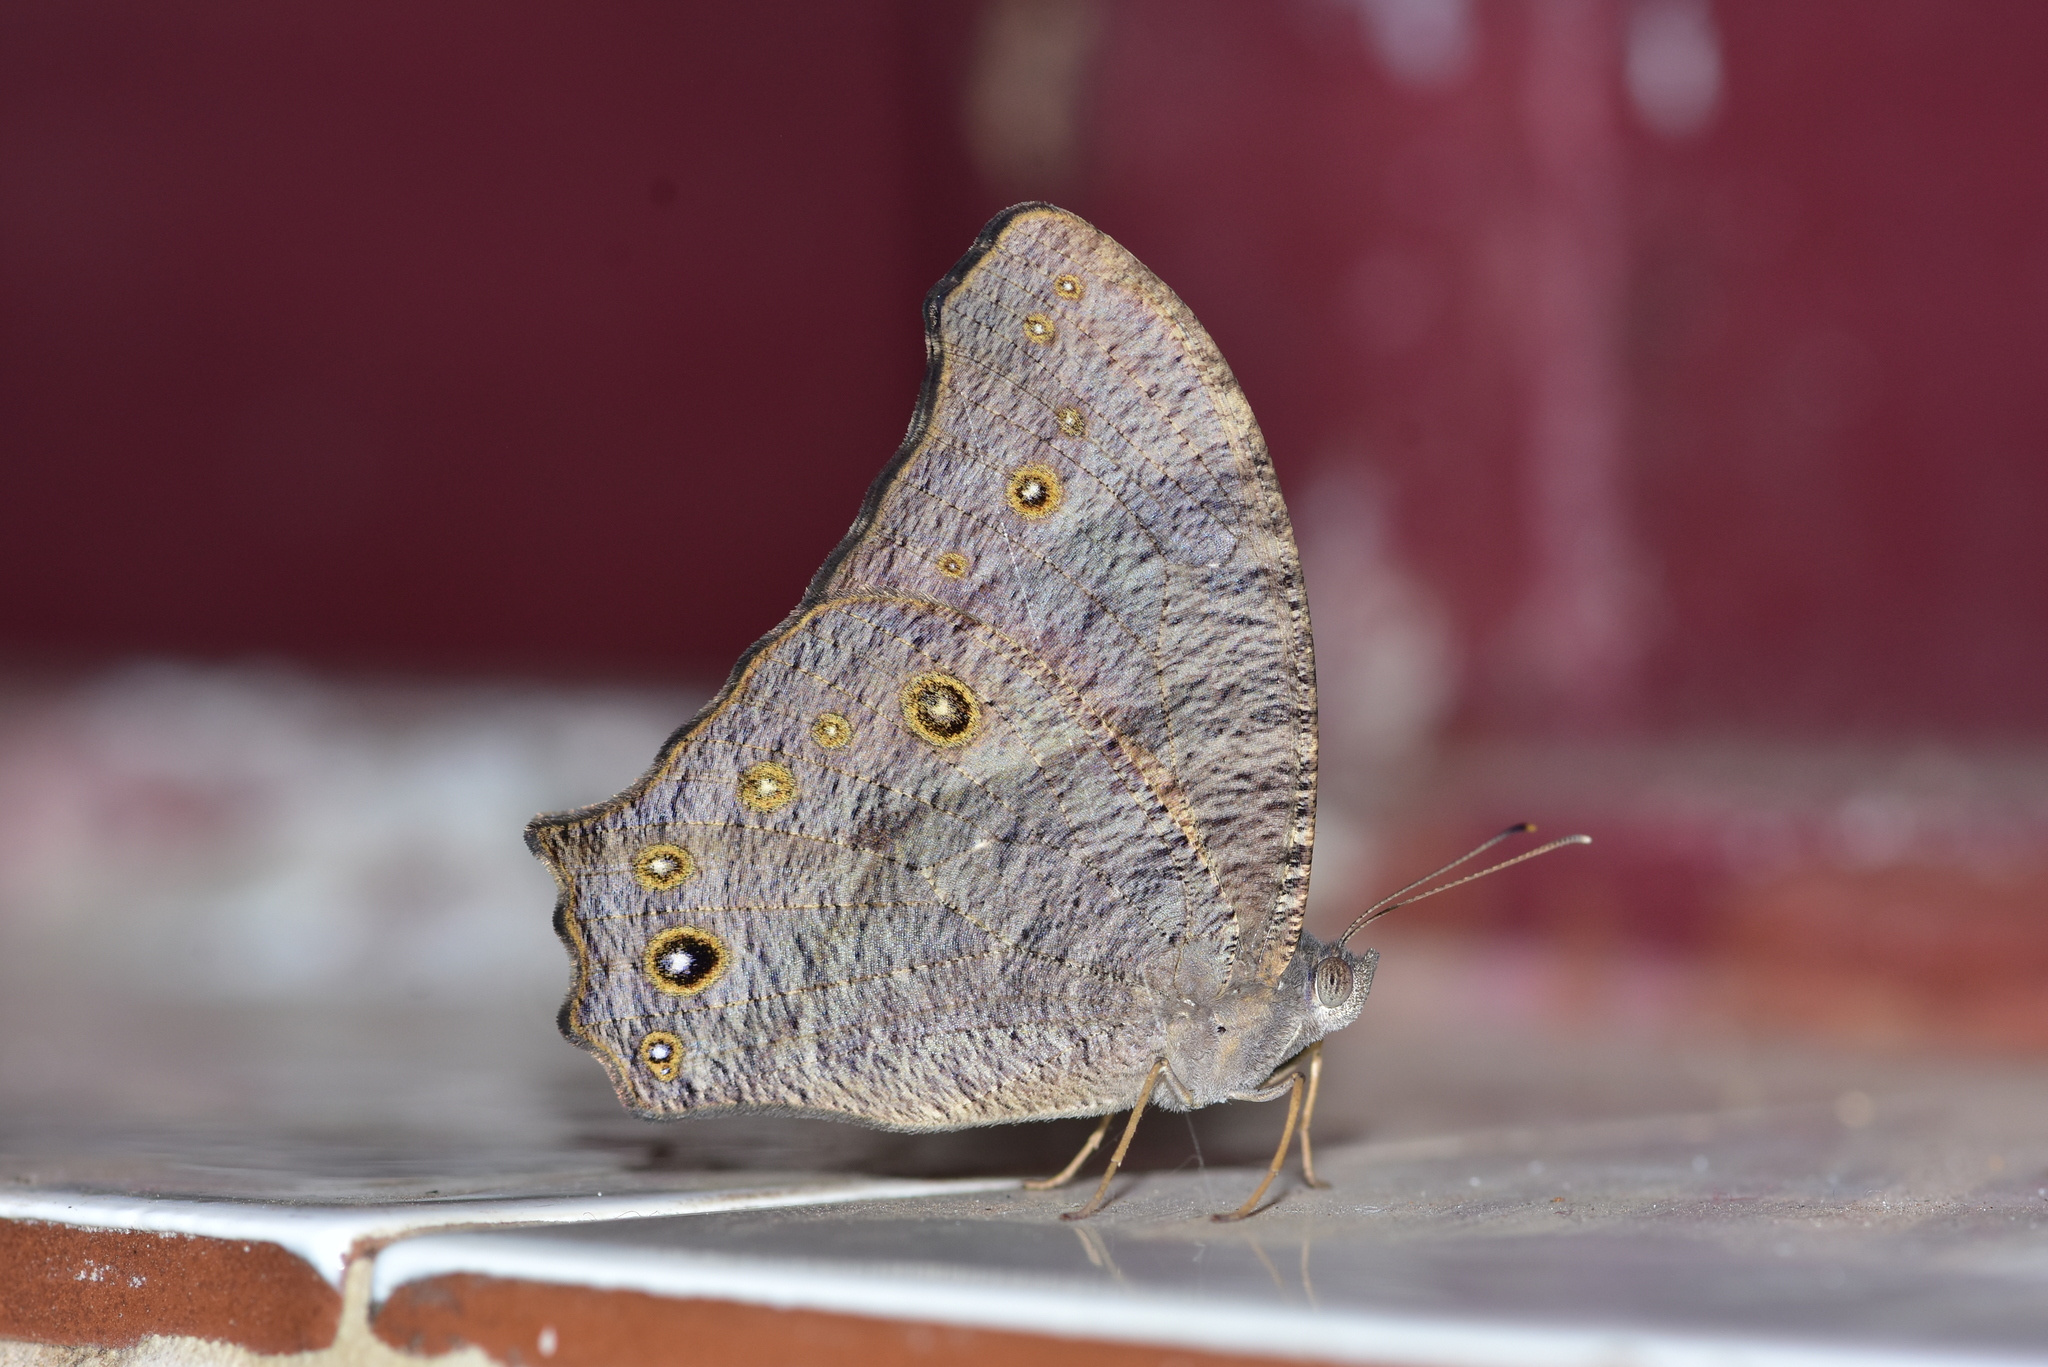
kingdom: Animalia
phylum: Arthropoda
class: Insecta
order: Lepidoptera
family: Nymphalidae
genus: Melanitis
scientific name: Melanitis leda
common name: Twilight brown
